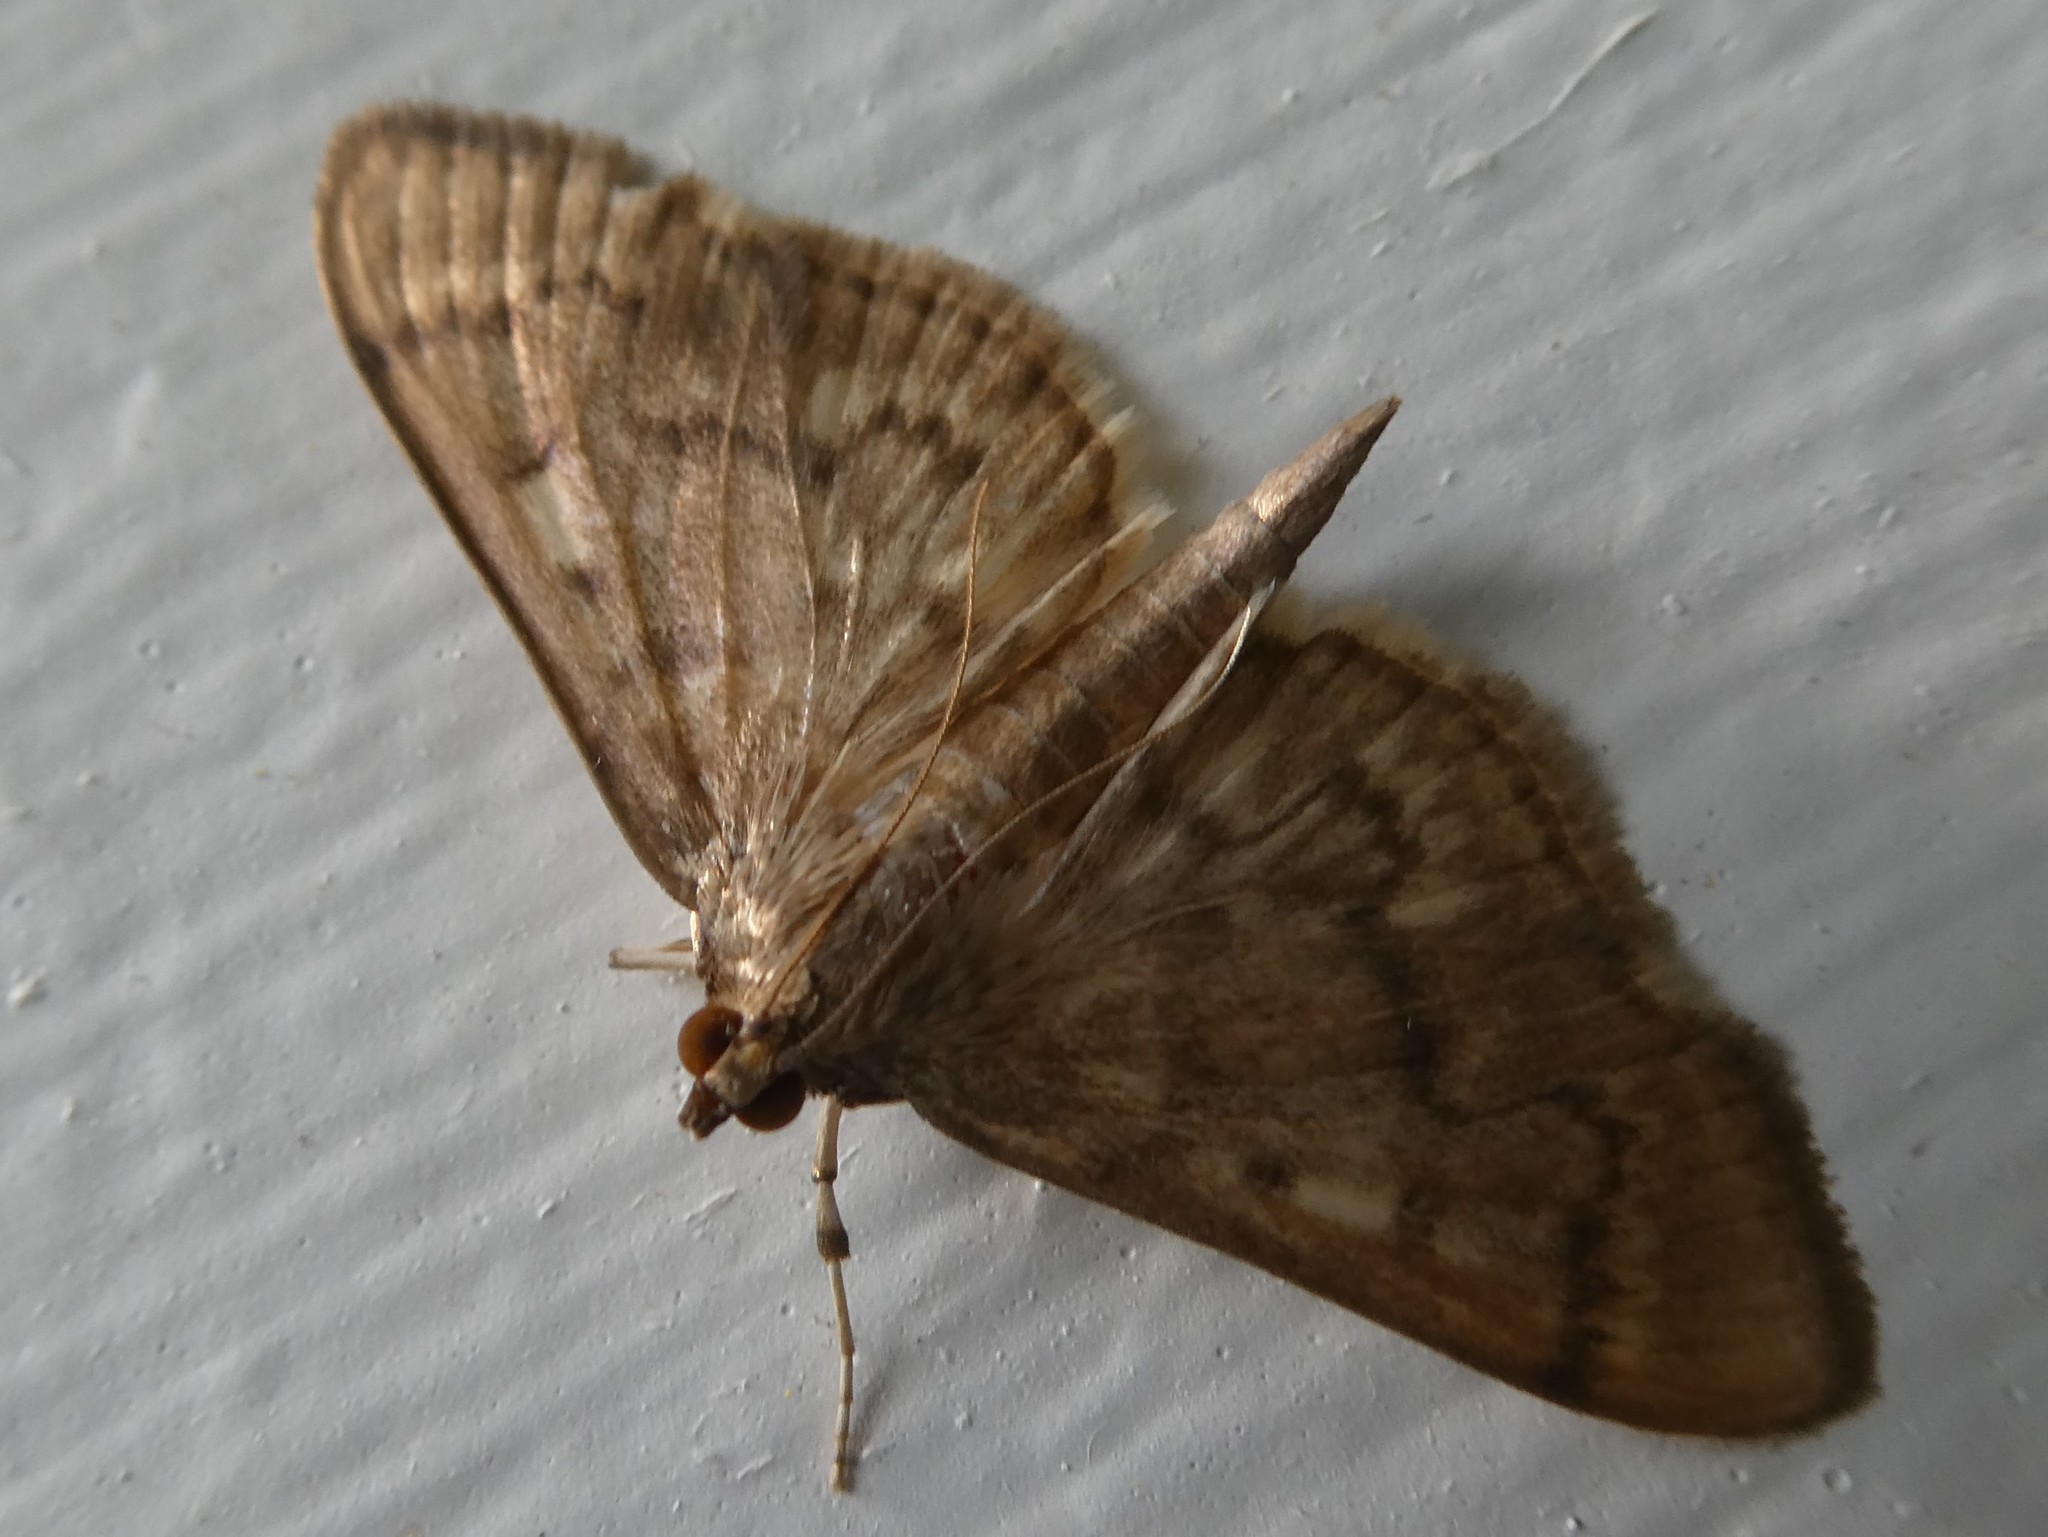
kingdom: Animalia
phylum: Arthropoda
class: Insecta
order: Lepidoptera
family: Crambidae
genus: Herpetogramma
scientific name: Herpetogramma aeglealis
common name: Serpentine webworm moth
